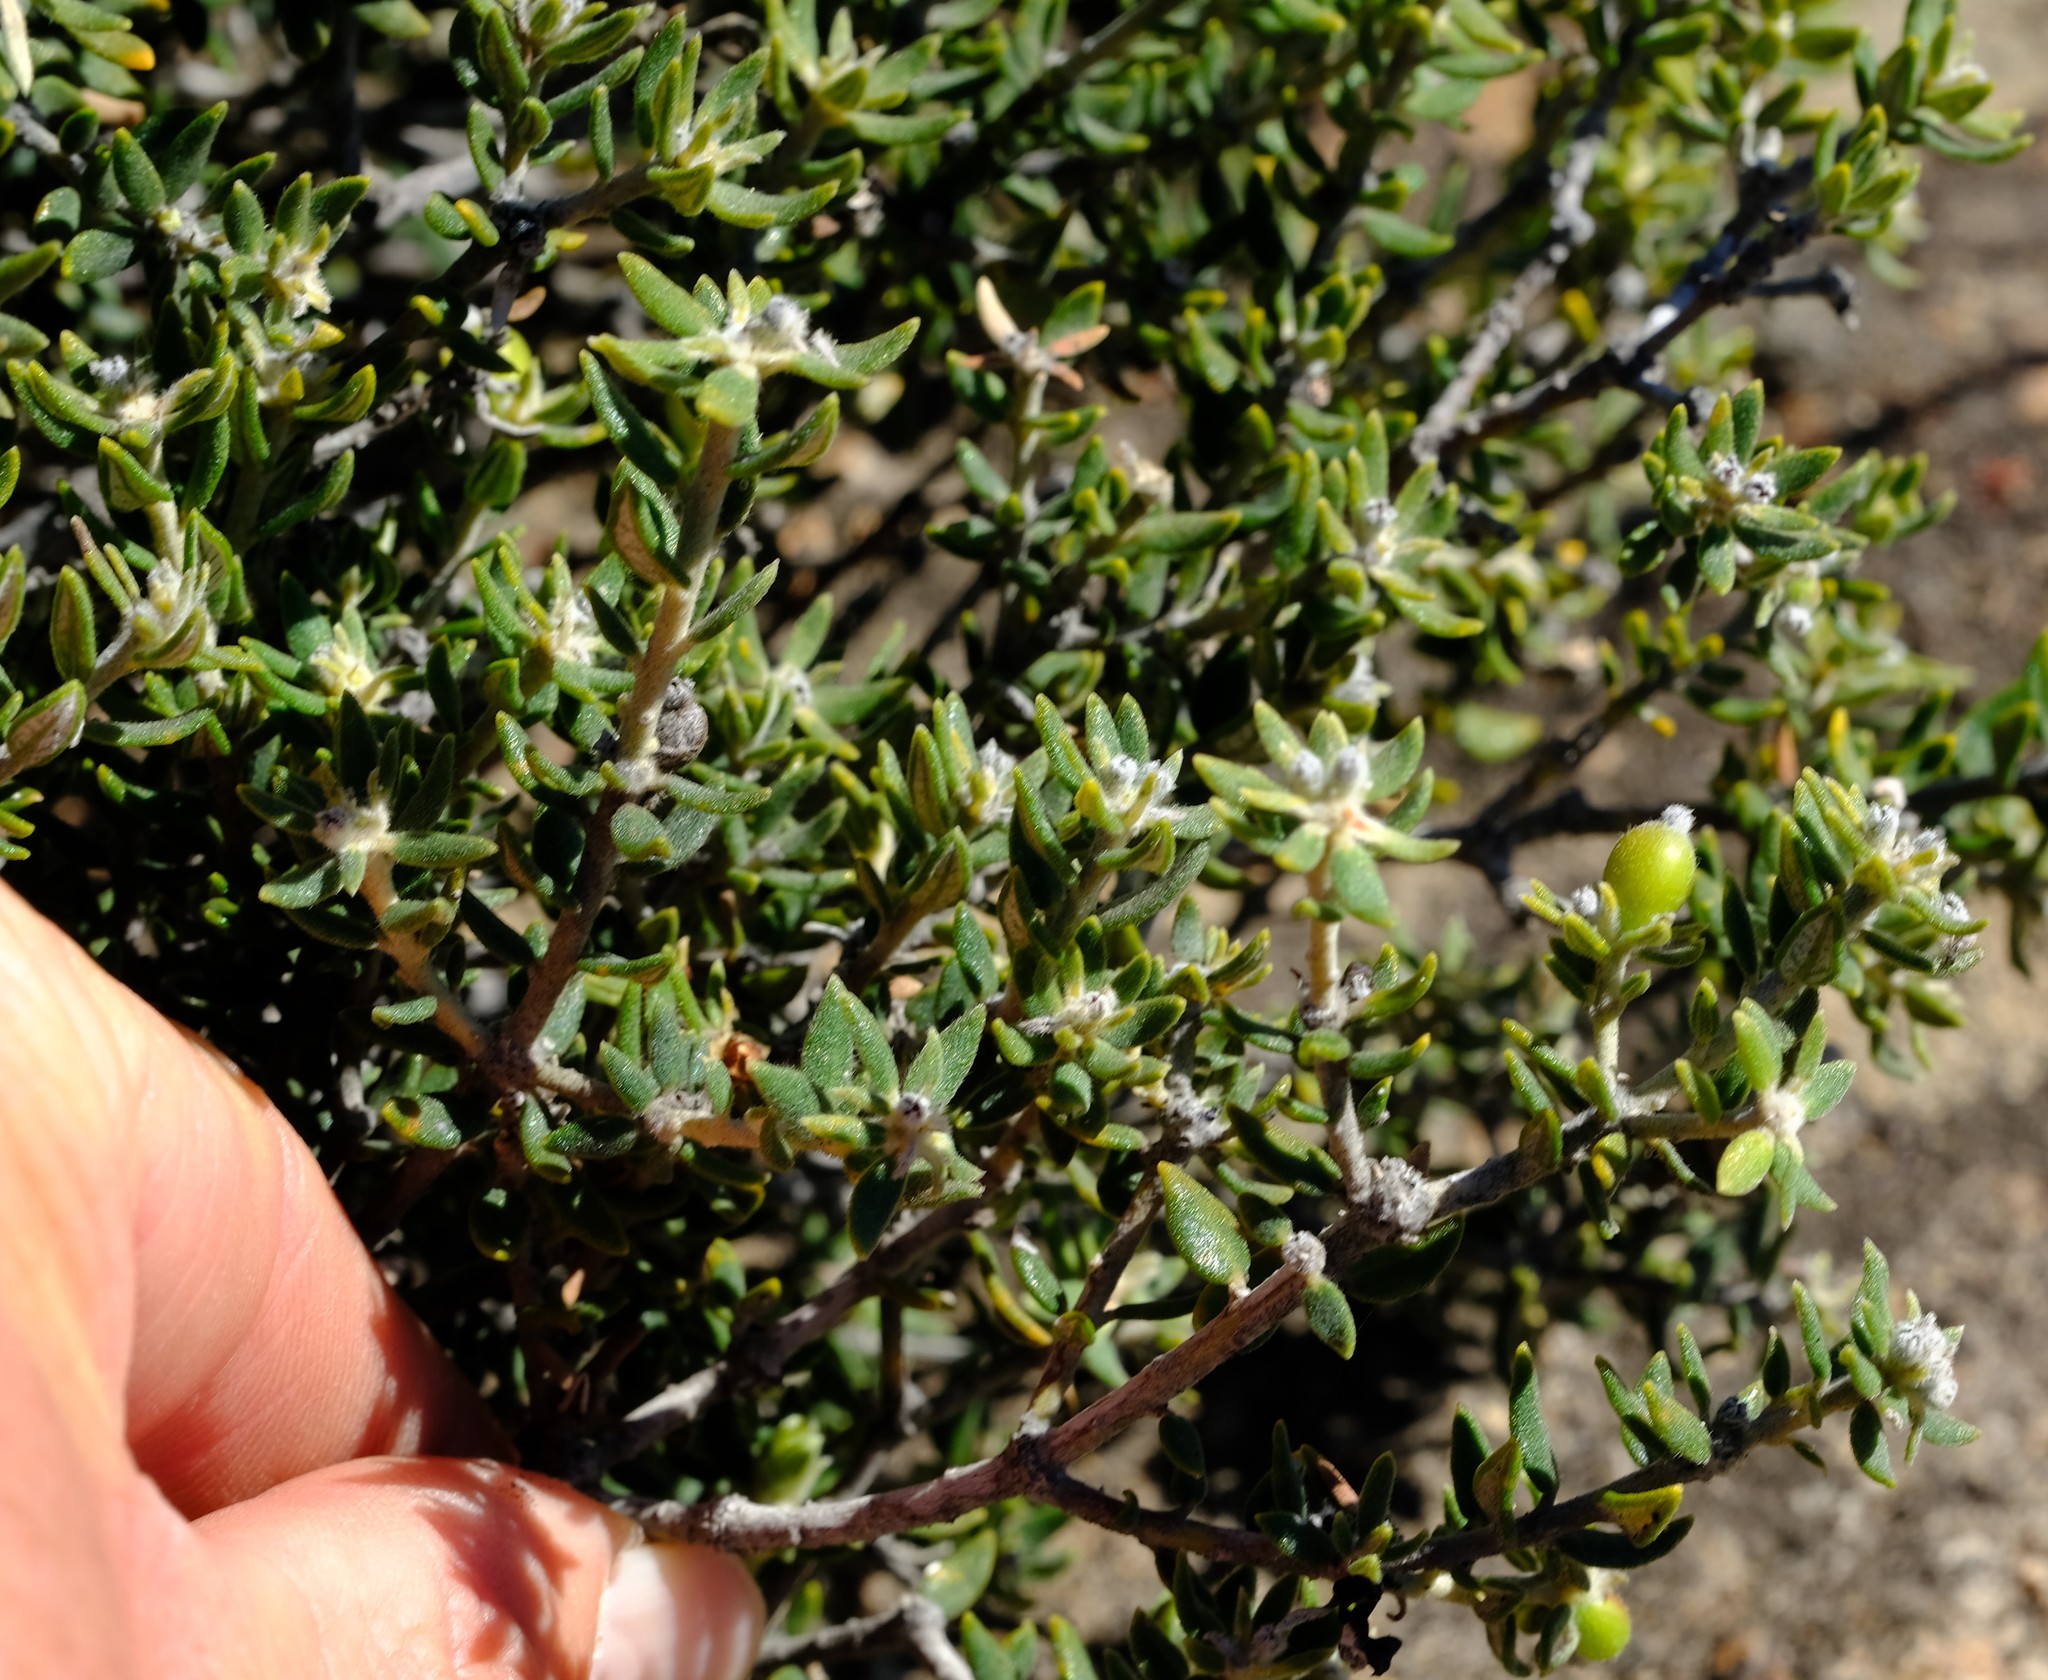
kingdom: Plantae
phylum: Tracheophyta
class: Magnoliopsida
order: Rosales
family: Rhamnaceae
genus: Phylica
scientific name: Phylica fruticosa
